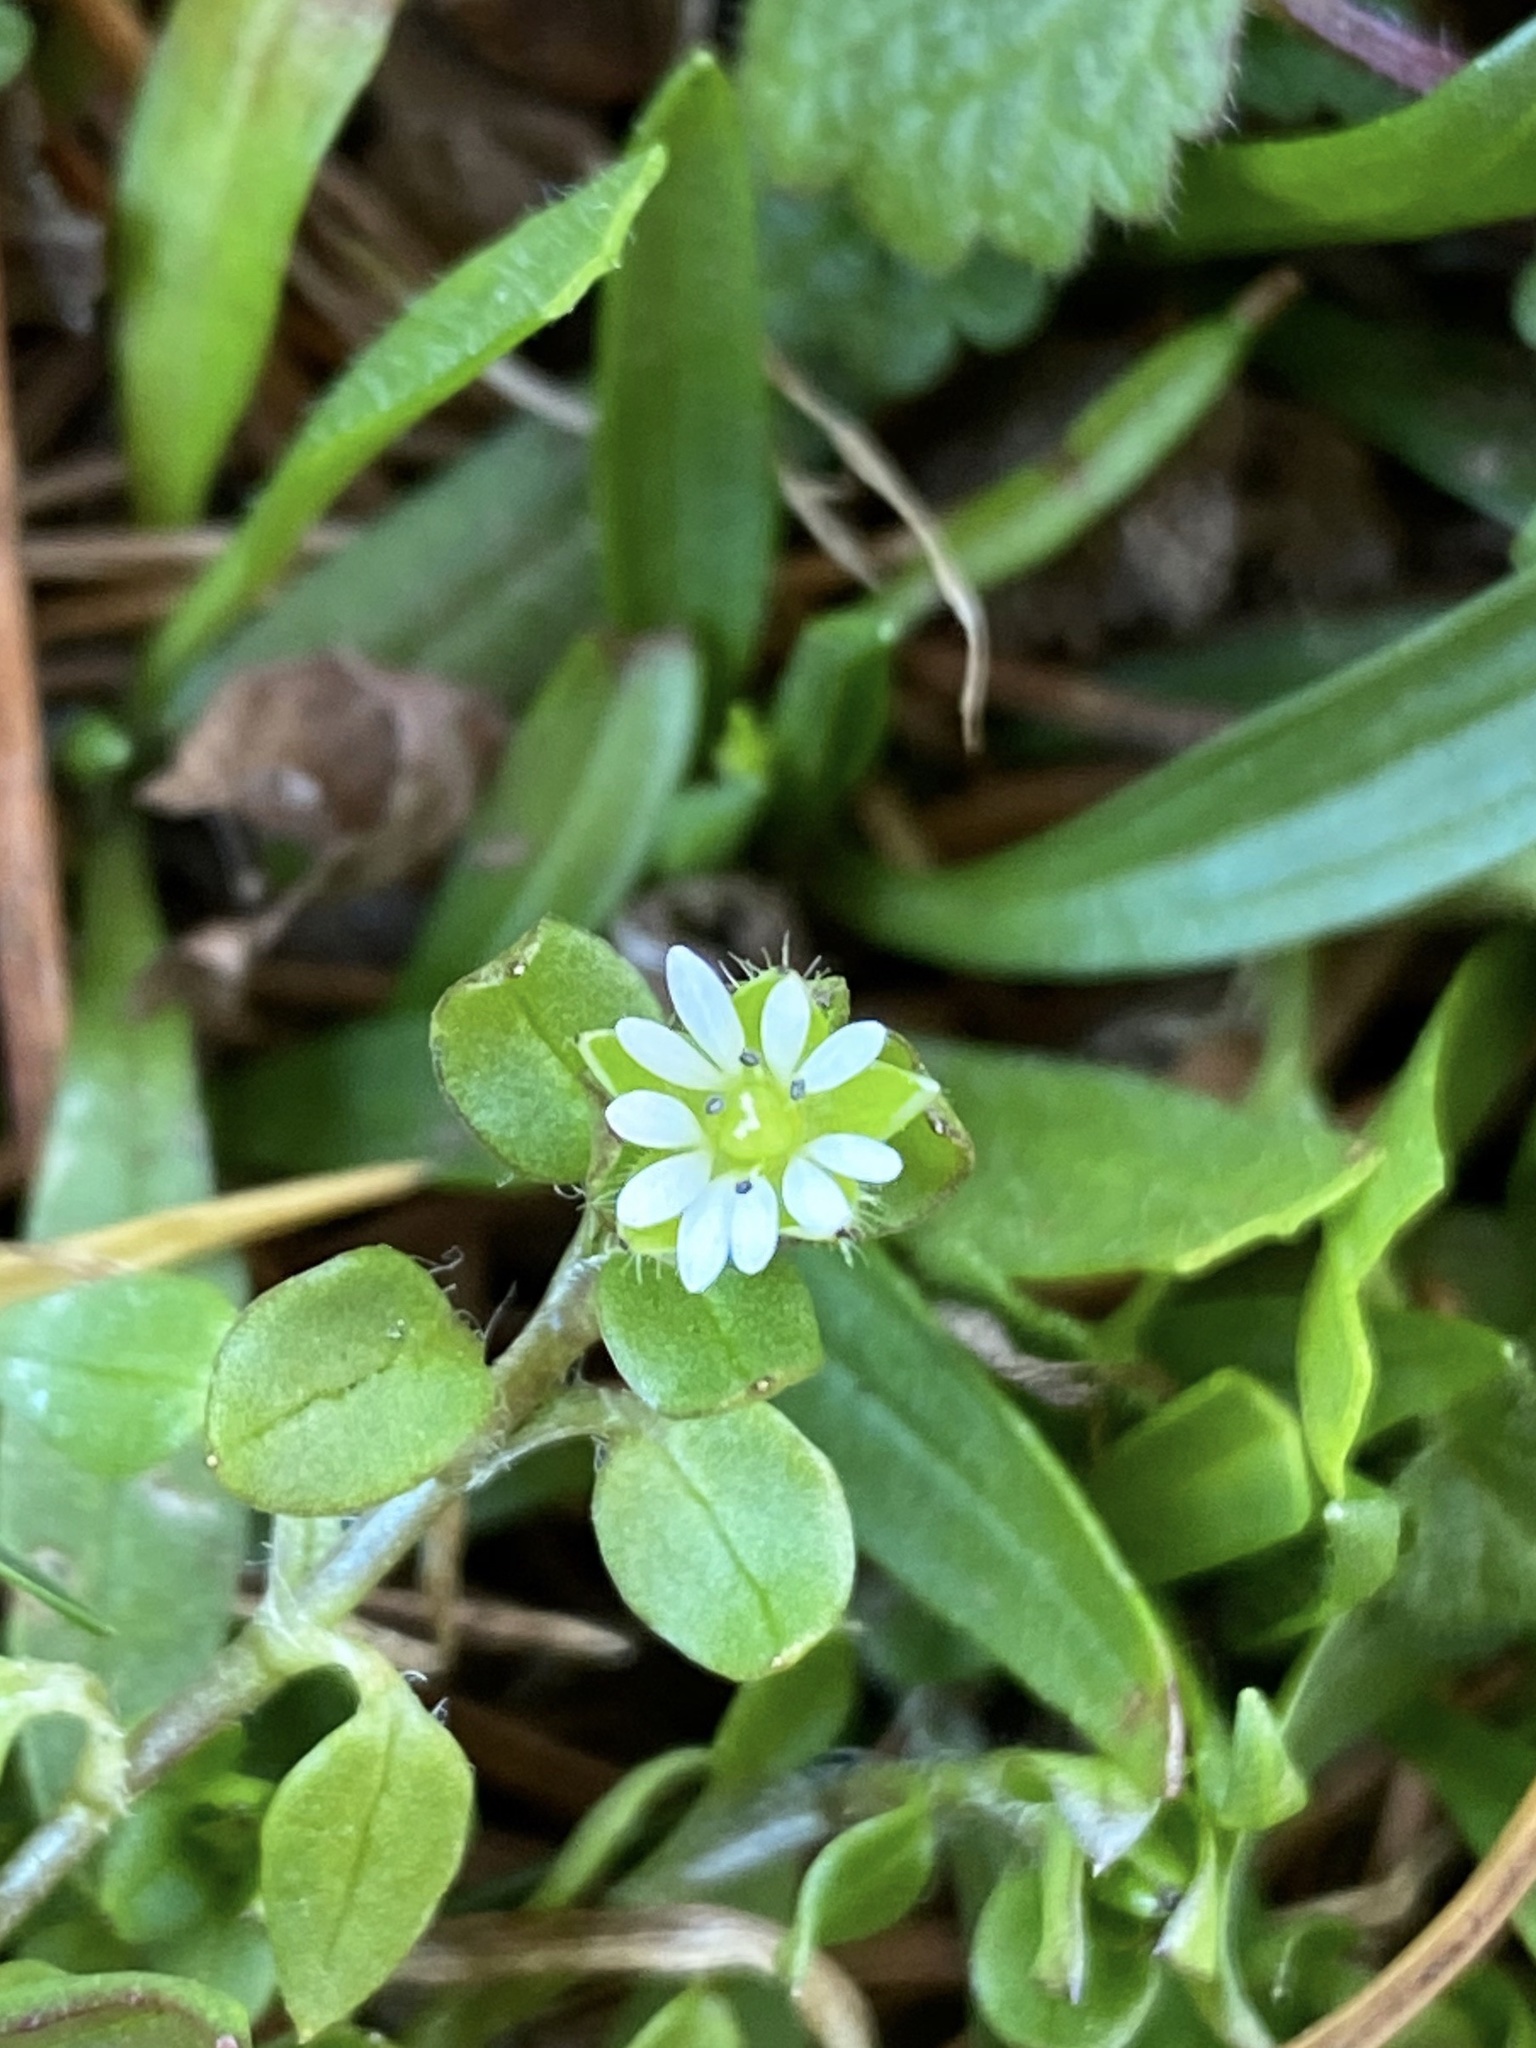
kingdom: Plantae
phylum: Tracheophyta
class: Magnoliopsida
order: Caryophyllales
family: Caryophyllaceae
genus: Stellaria
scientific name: Stellaria media
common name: Common chickweed
